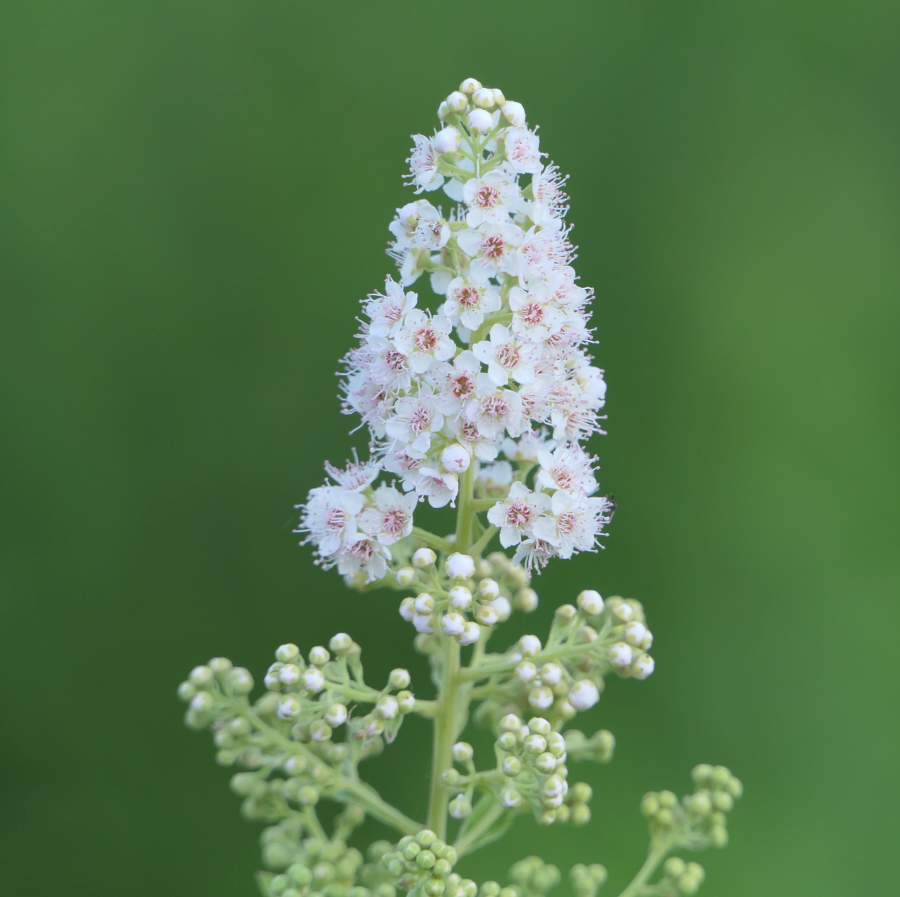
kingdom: Plantae
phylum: Tracheophyta
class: Magnoliopsida
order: Rosales
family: Rosaceae
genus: Spiraea
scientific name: Spiraea alba
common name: Pale bridewort
